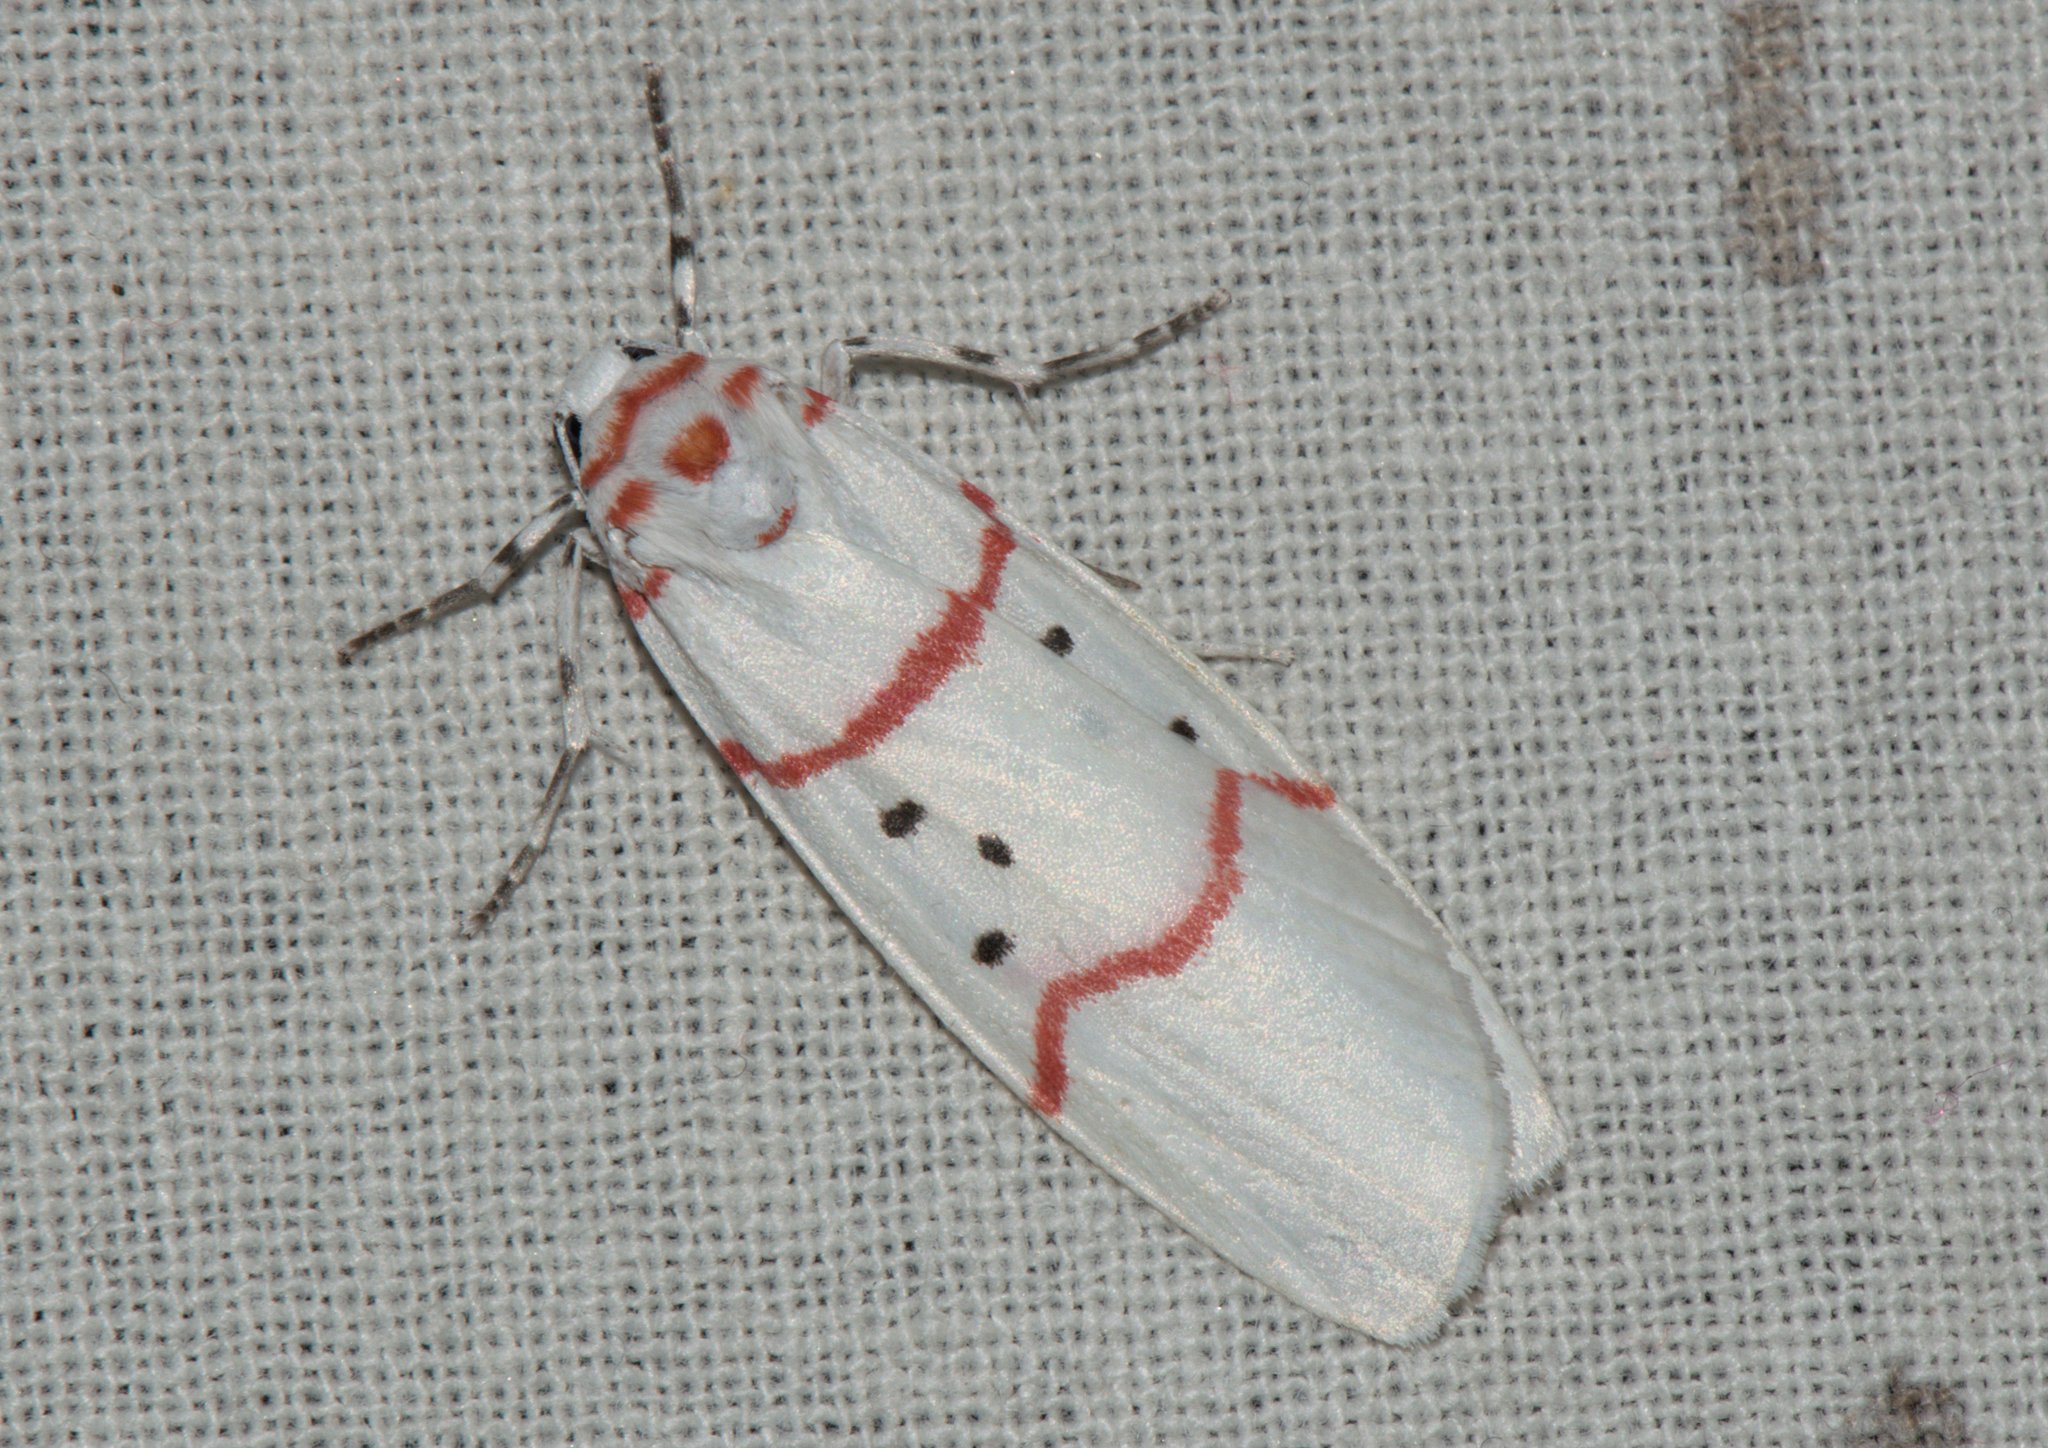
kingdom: Animalia
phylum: Arthropoda
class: Insecta
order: Lepidoptera
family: Erebidae
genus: Cyana
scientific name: Cyana adita
